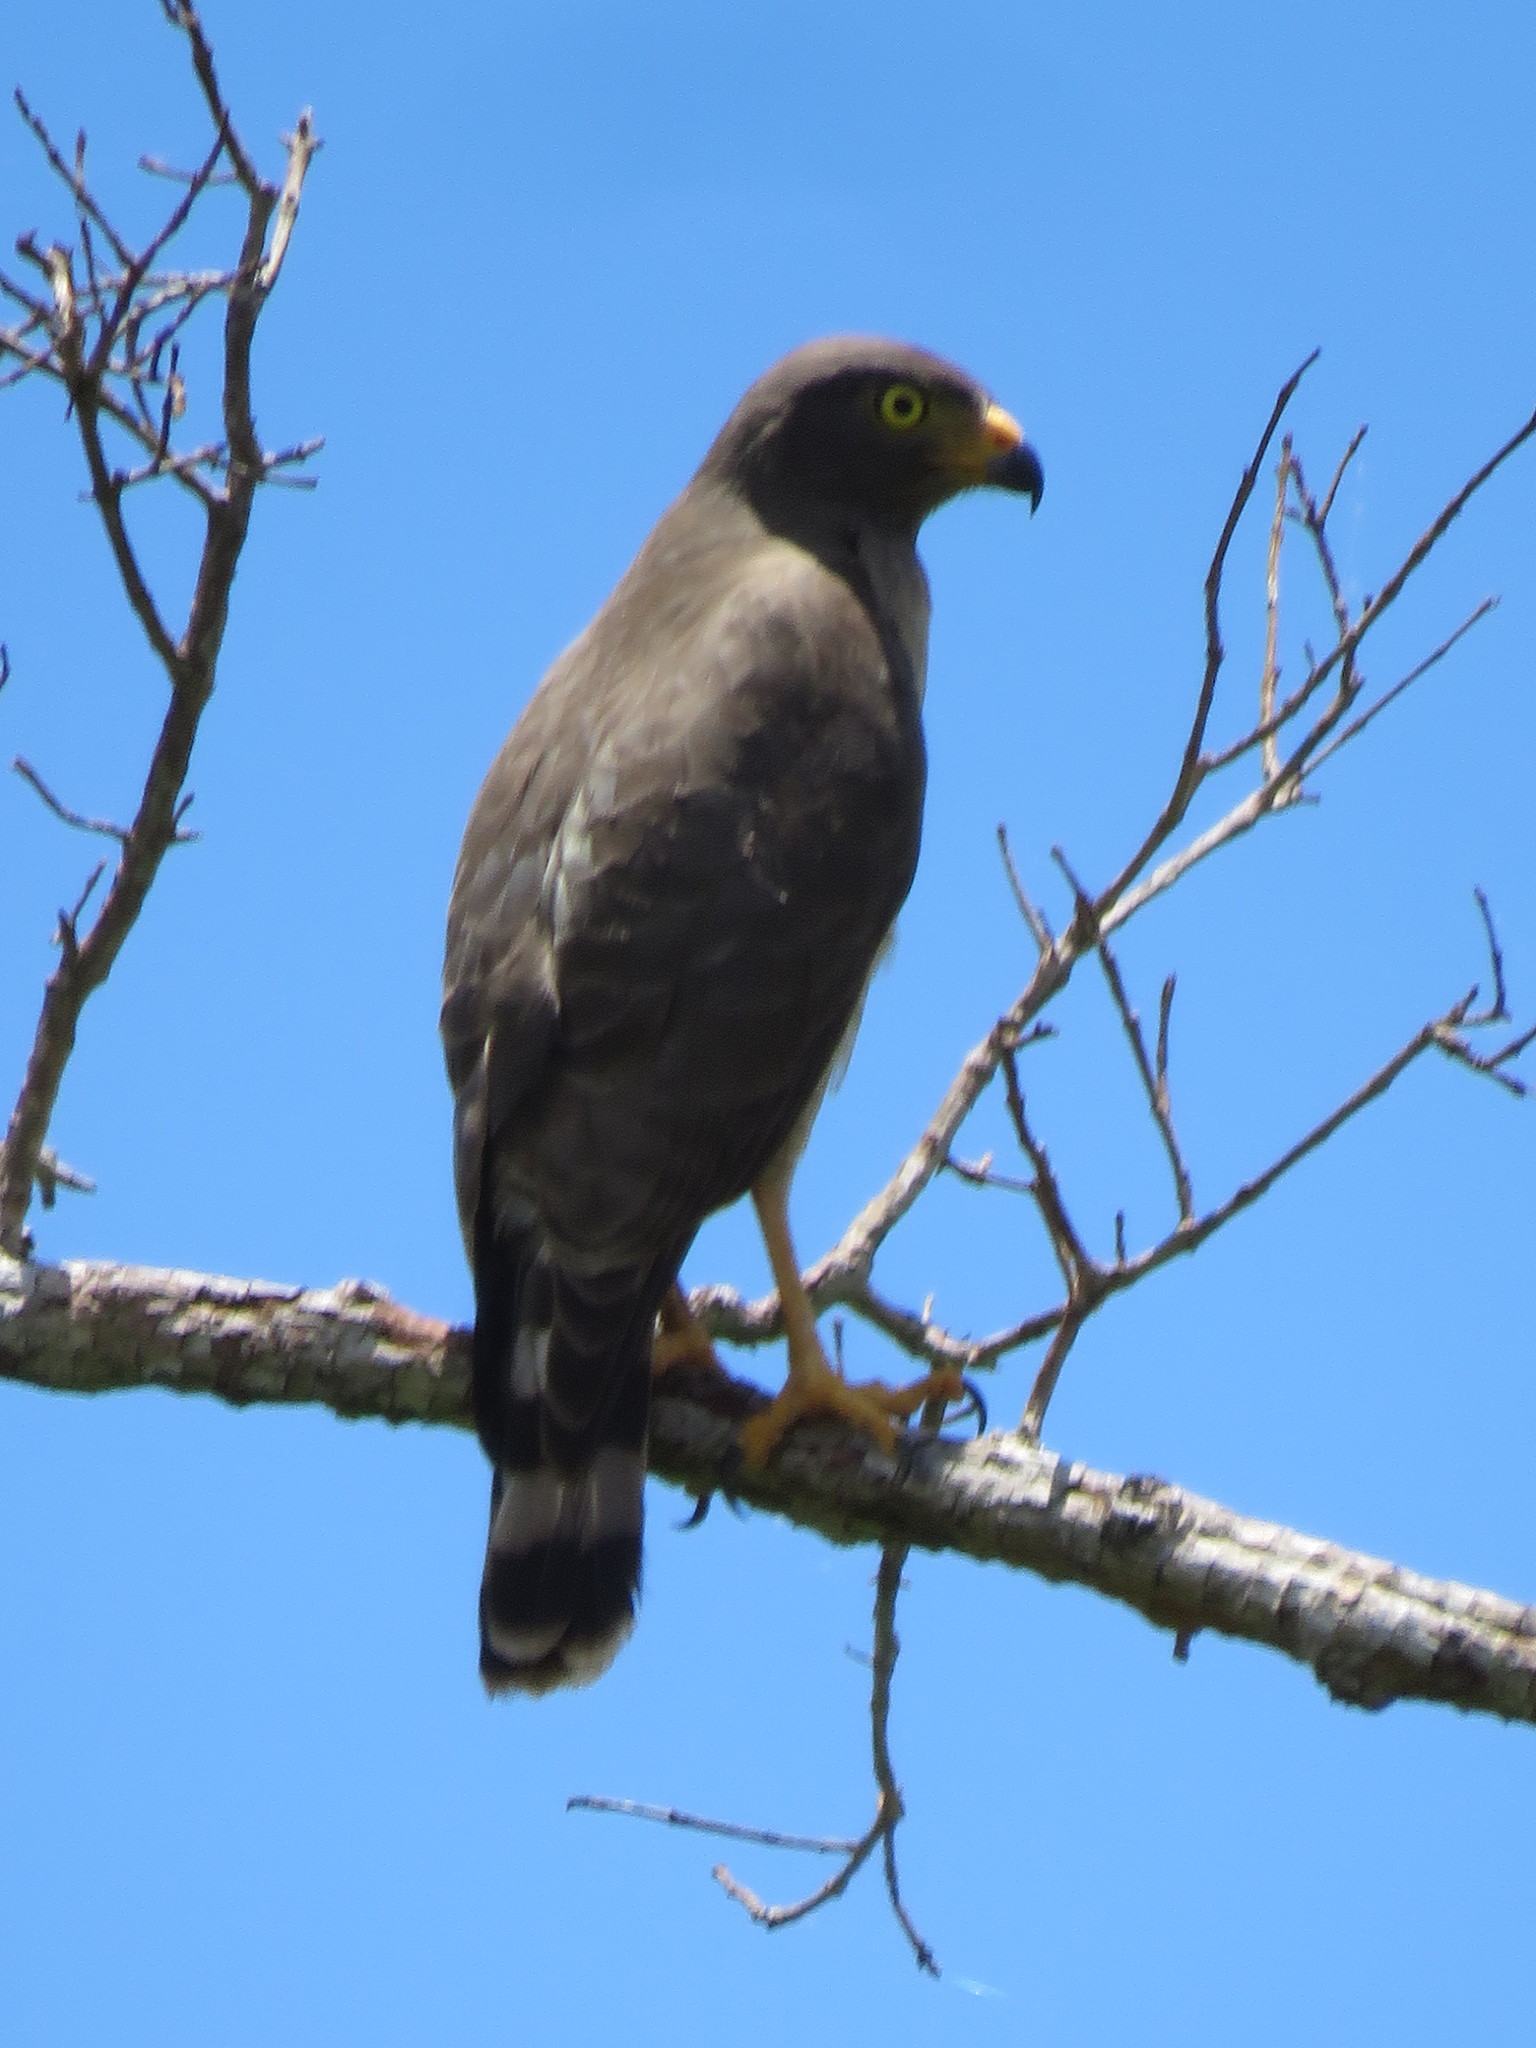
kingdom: Animalia
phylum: Chordata
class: Aves
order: Accipitriformes
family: Accipitridae
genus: Rupornis
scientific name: Rupornis magnirostris
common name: Roadside hawk
